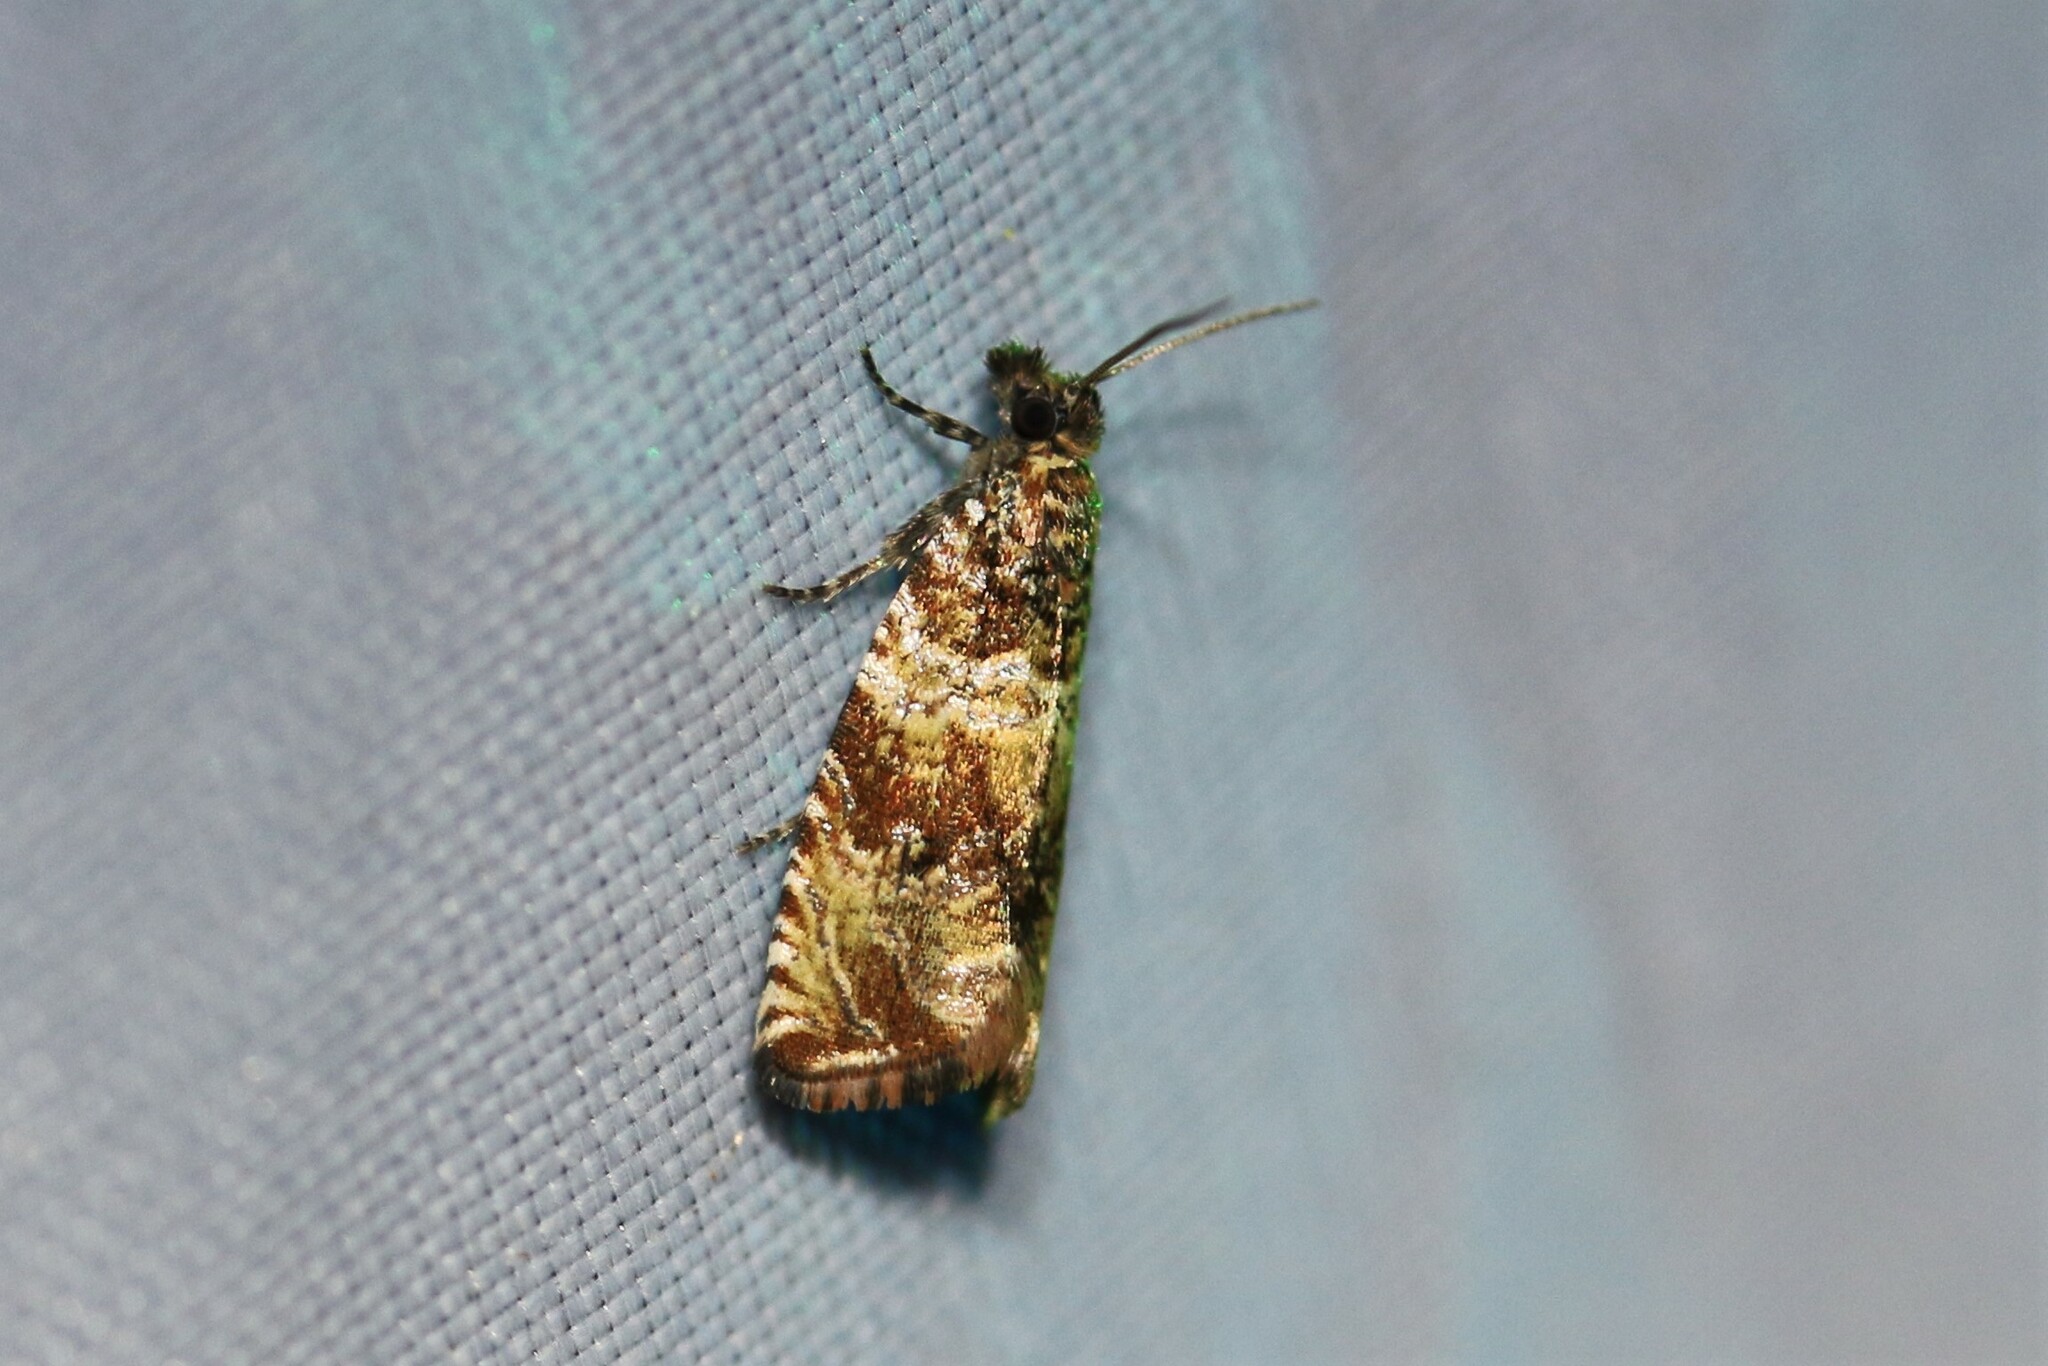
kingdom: Animalia
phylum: Arthropoda
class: Insecta
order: Lepidoptera
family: Tortricidae
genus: Celypha
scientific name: Celypha cespitana
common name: Thyme marble
